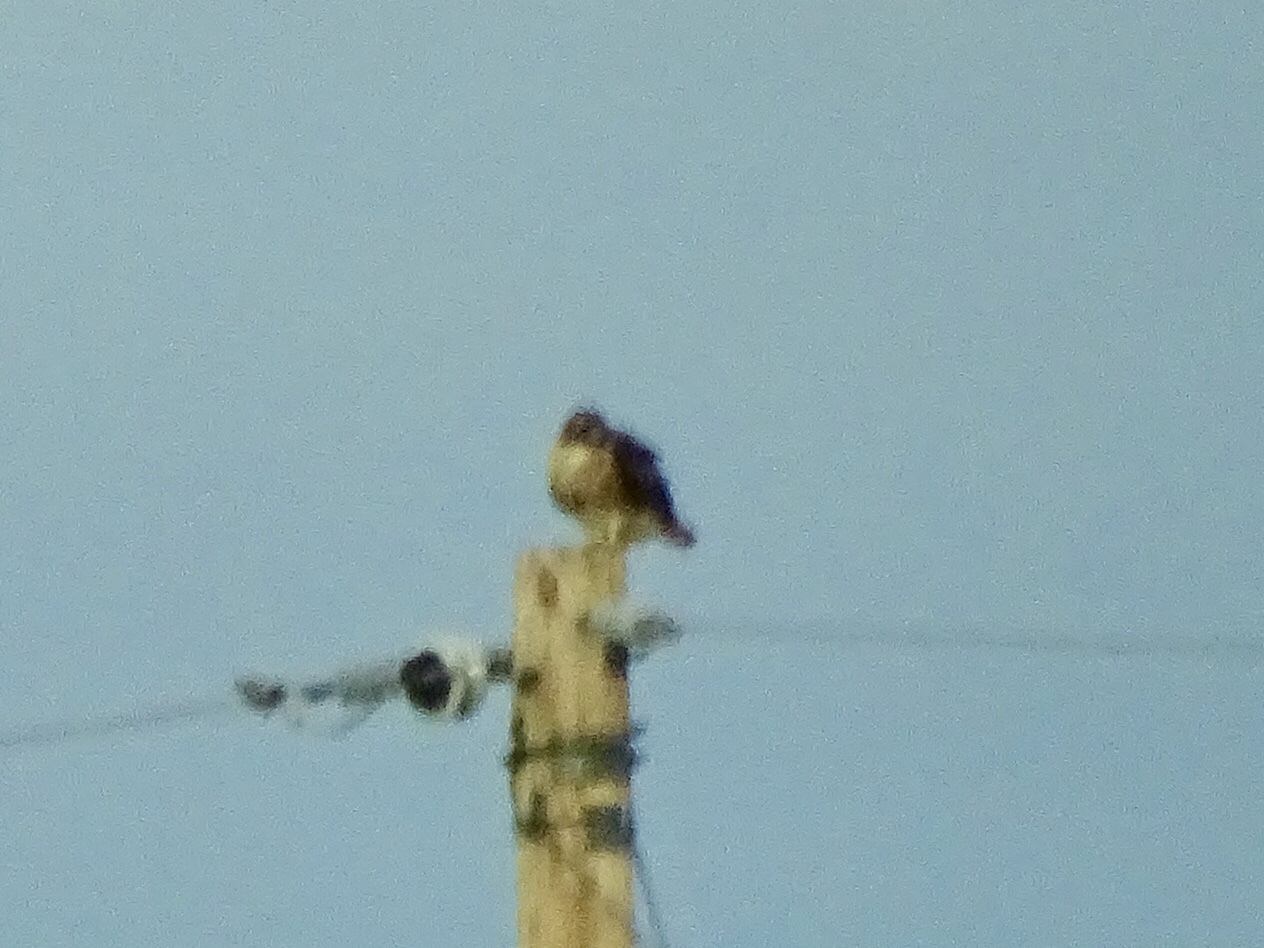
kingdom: Animalia
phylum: Chordata
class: Aves
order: Accipitriformes
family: Accipitridae
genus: Buteo
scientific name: Buteo jamaicensis
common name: Red-tailed hawk
